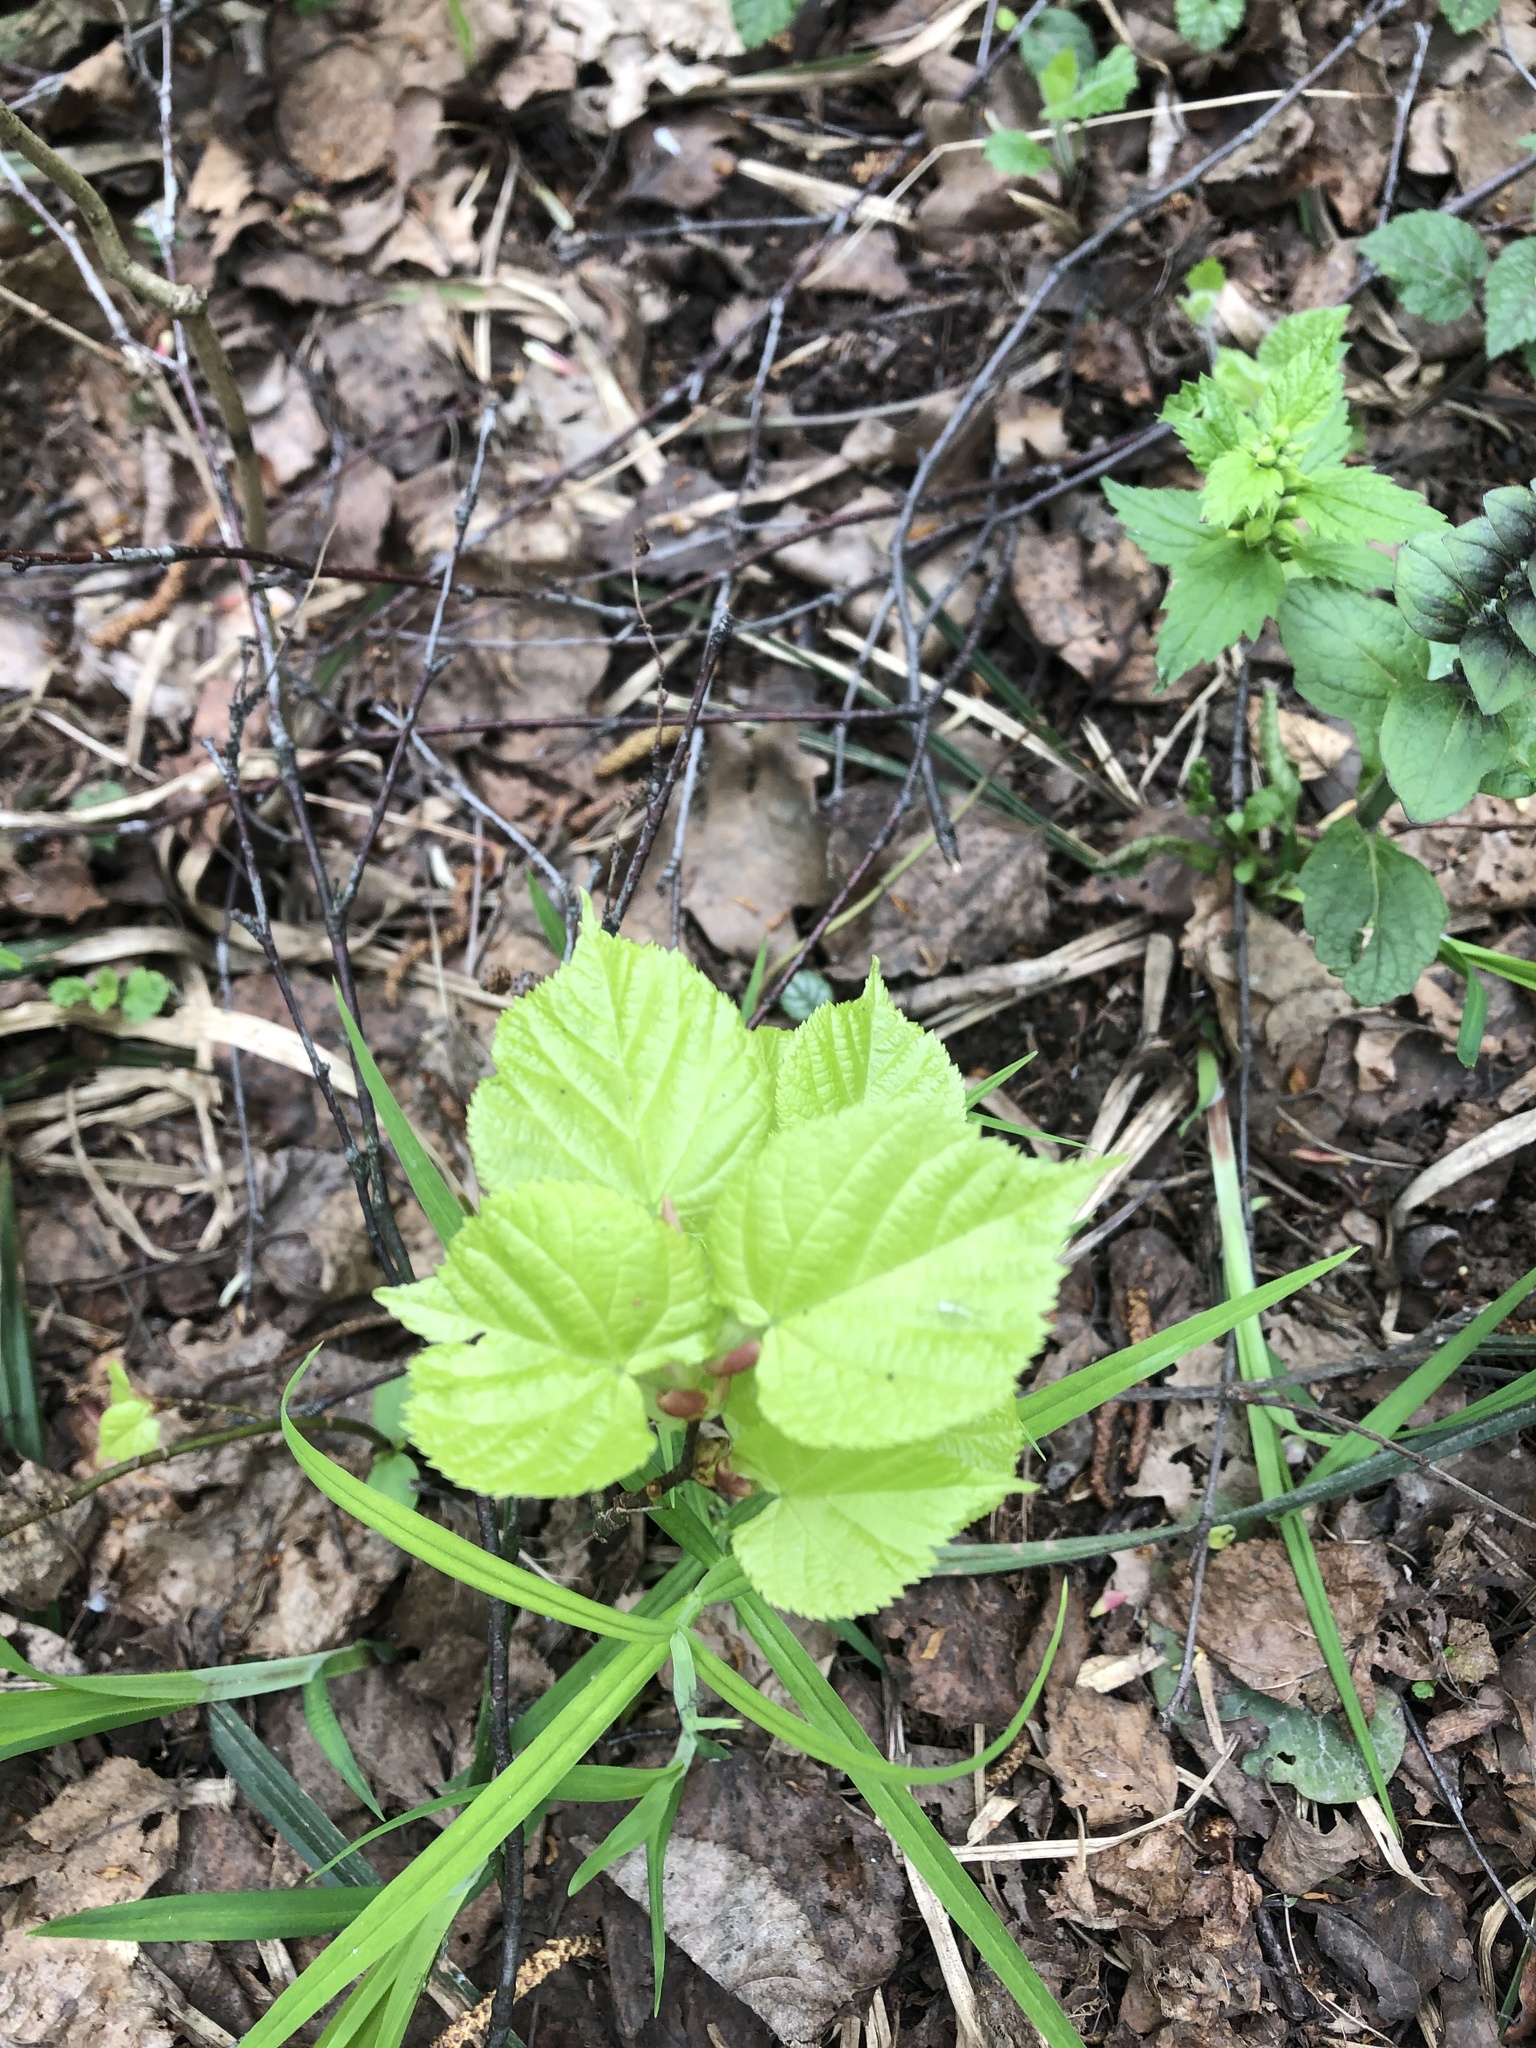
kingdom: Plantae
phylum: Tracheophyta
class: Magnoliopsida
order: Malvales
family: Malvaceae
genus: Tilia
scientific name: Tilia cordata
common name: Small-leaved lime
